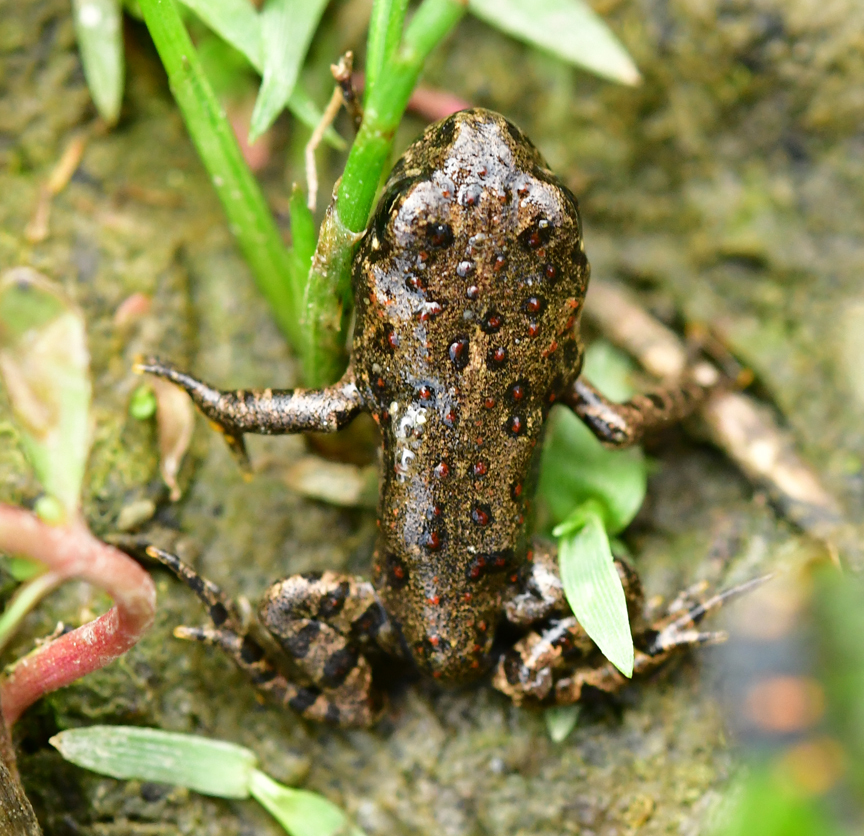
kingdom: Animalia
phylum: Chordata
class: Amphibia
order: Anura
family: Bufonidae
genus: Anaxyrus
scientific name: Anaxyrus boreas
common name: Western toad
